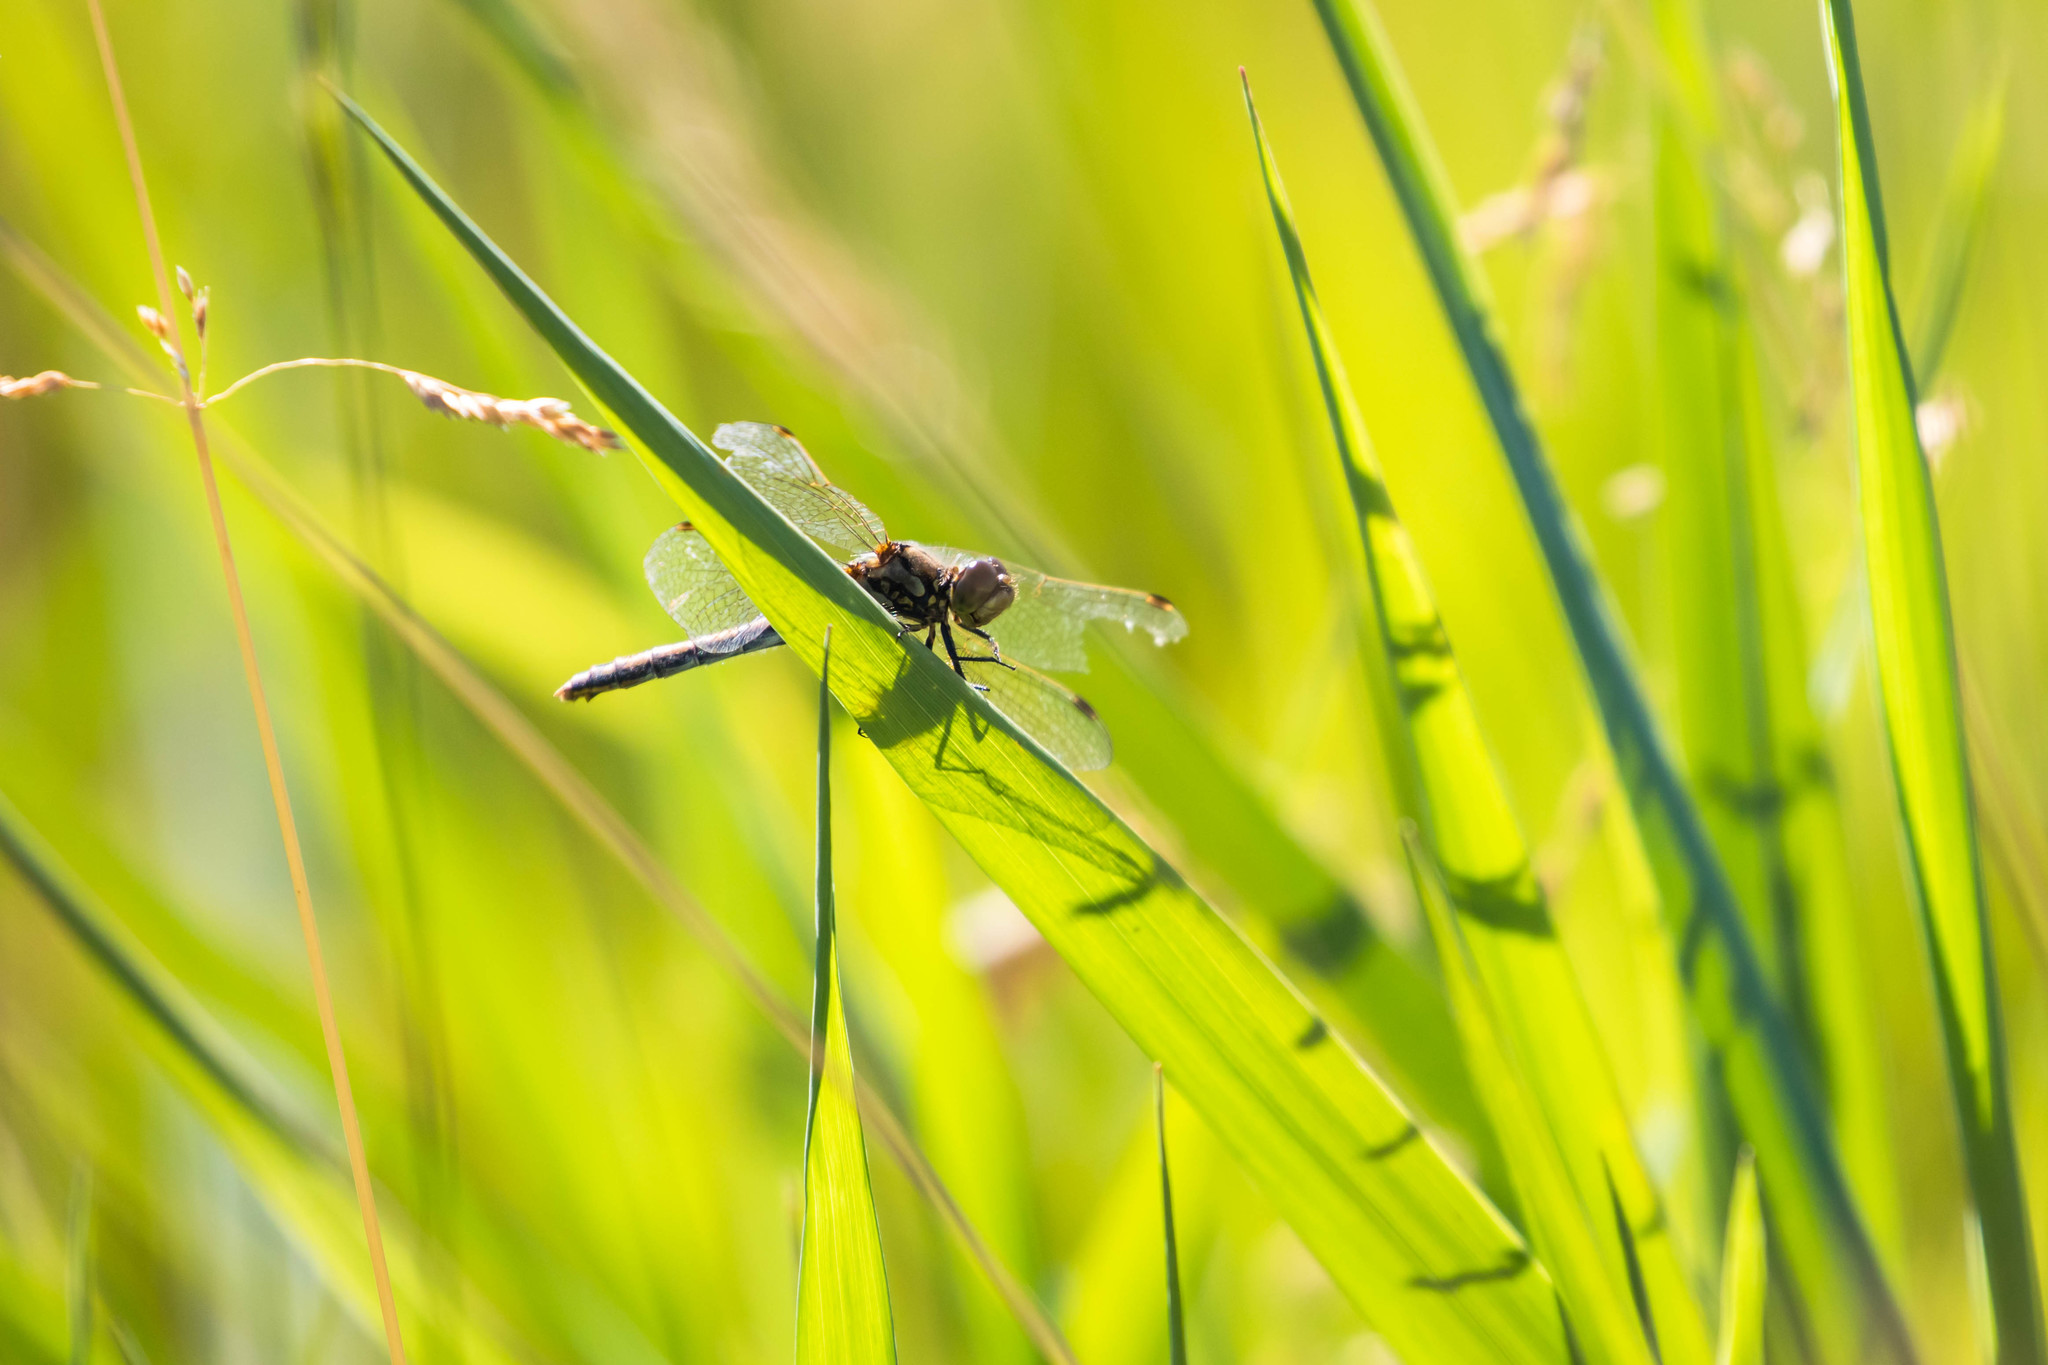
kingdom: Animalia
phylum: Arthropoda
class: Insecta
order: Odonata
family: Libellulidae
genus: Sympetrum
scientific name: Sympetrum danae
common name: Black darter
